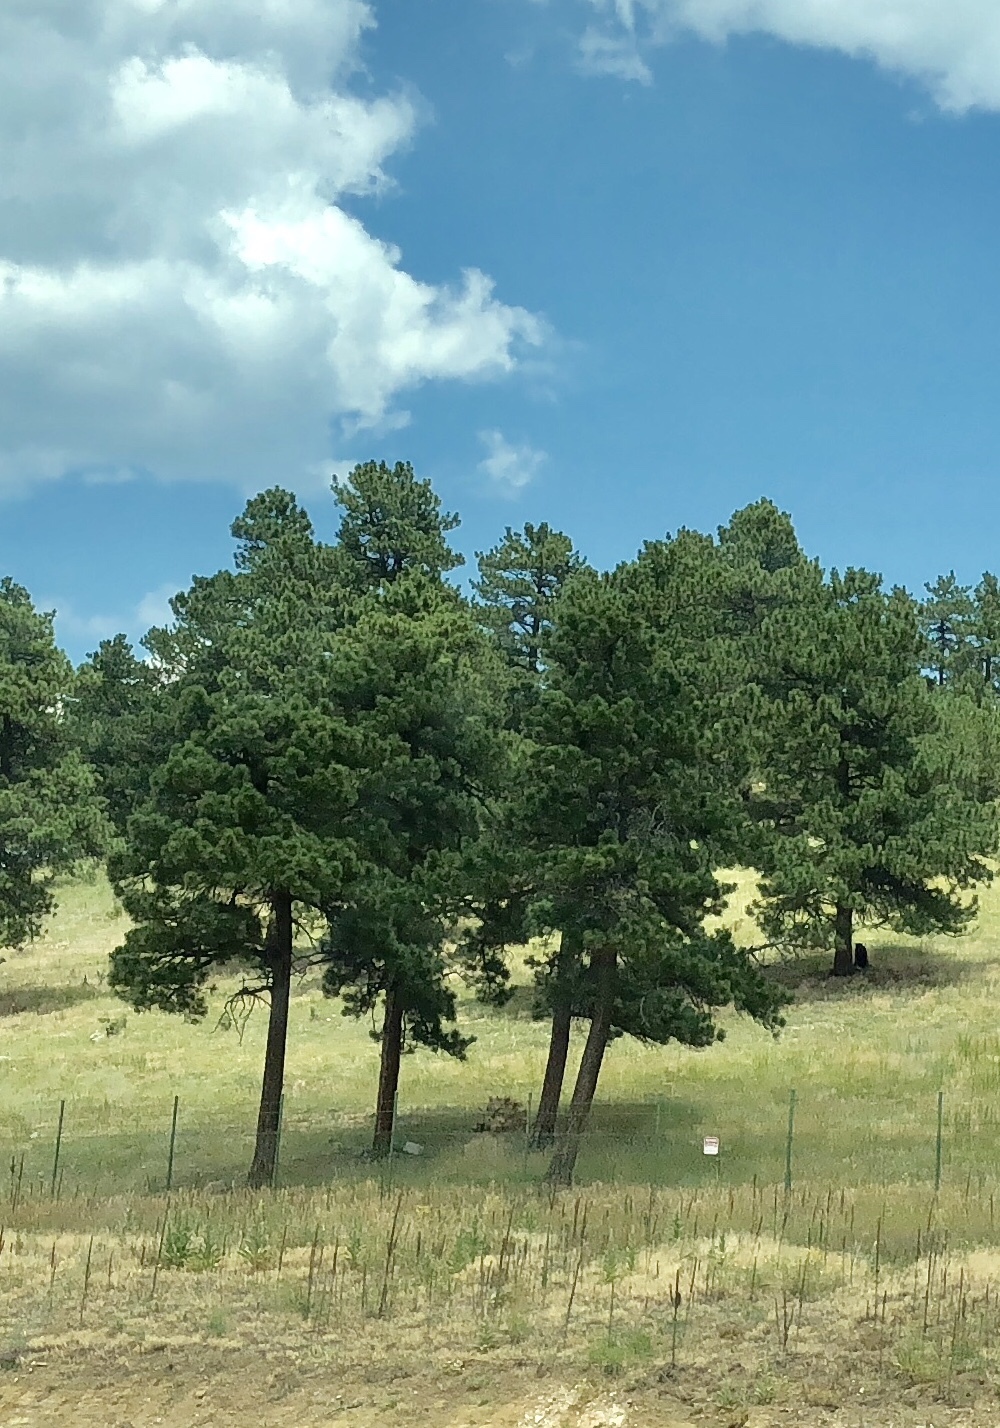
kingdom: Plantae
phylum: Tracheophyta
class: Pinopsida
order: Pinales
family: Pinaceae
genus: Pinus
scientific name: Pinus ponderosa
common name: Western yellow-pine
